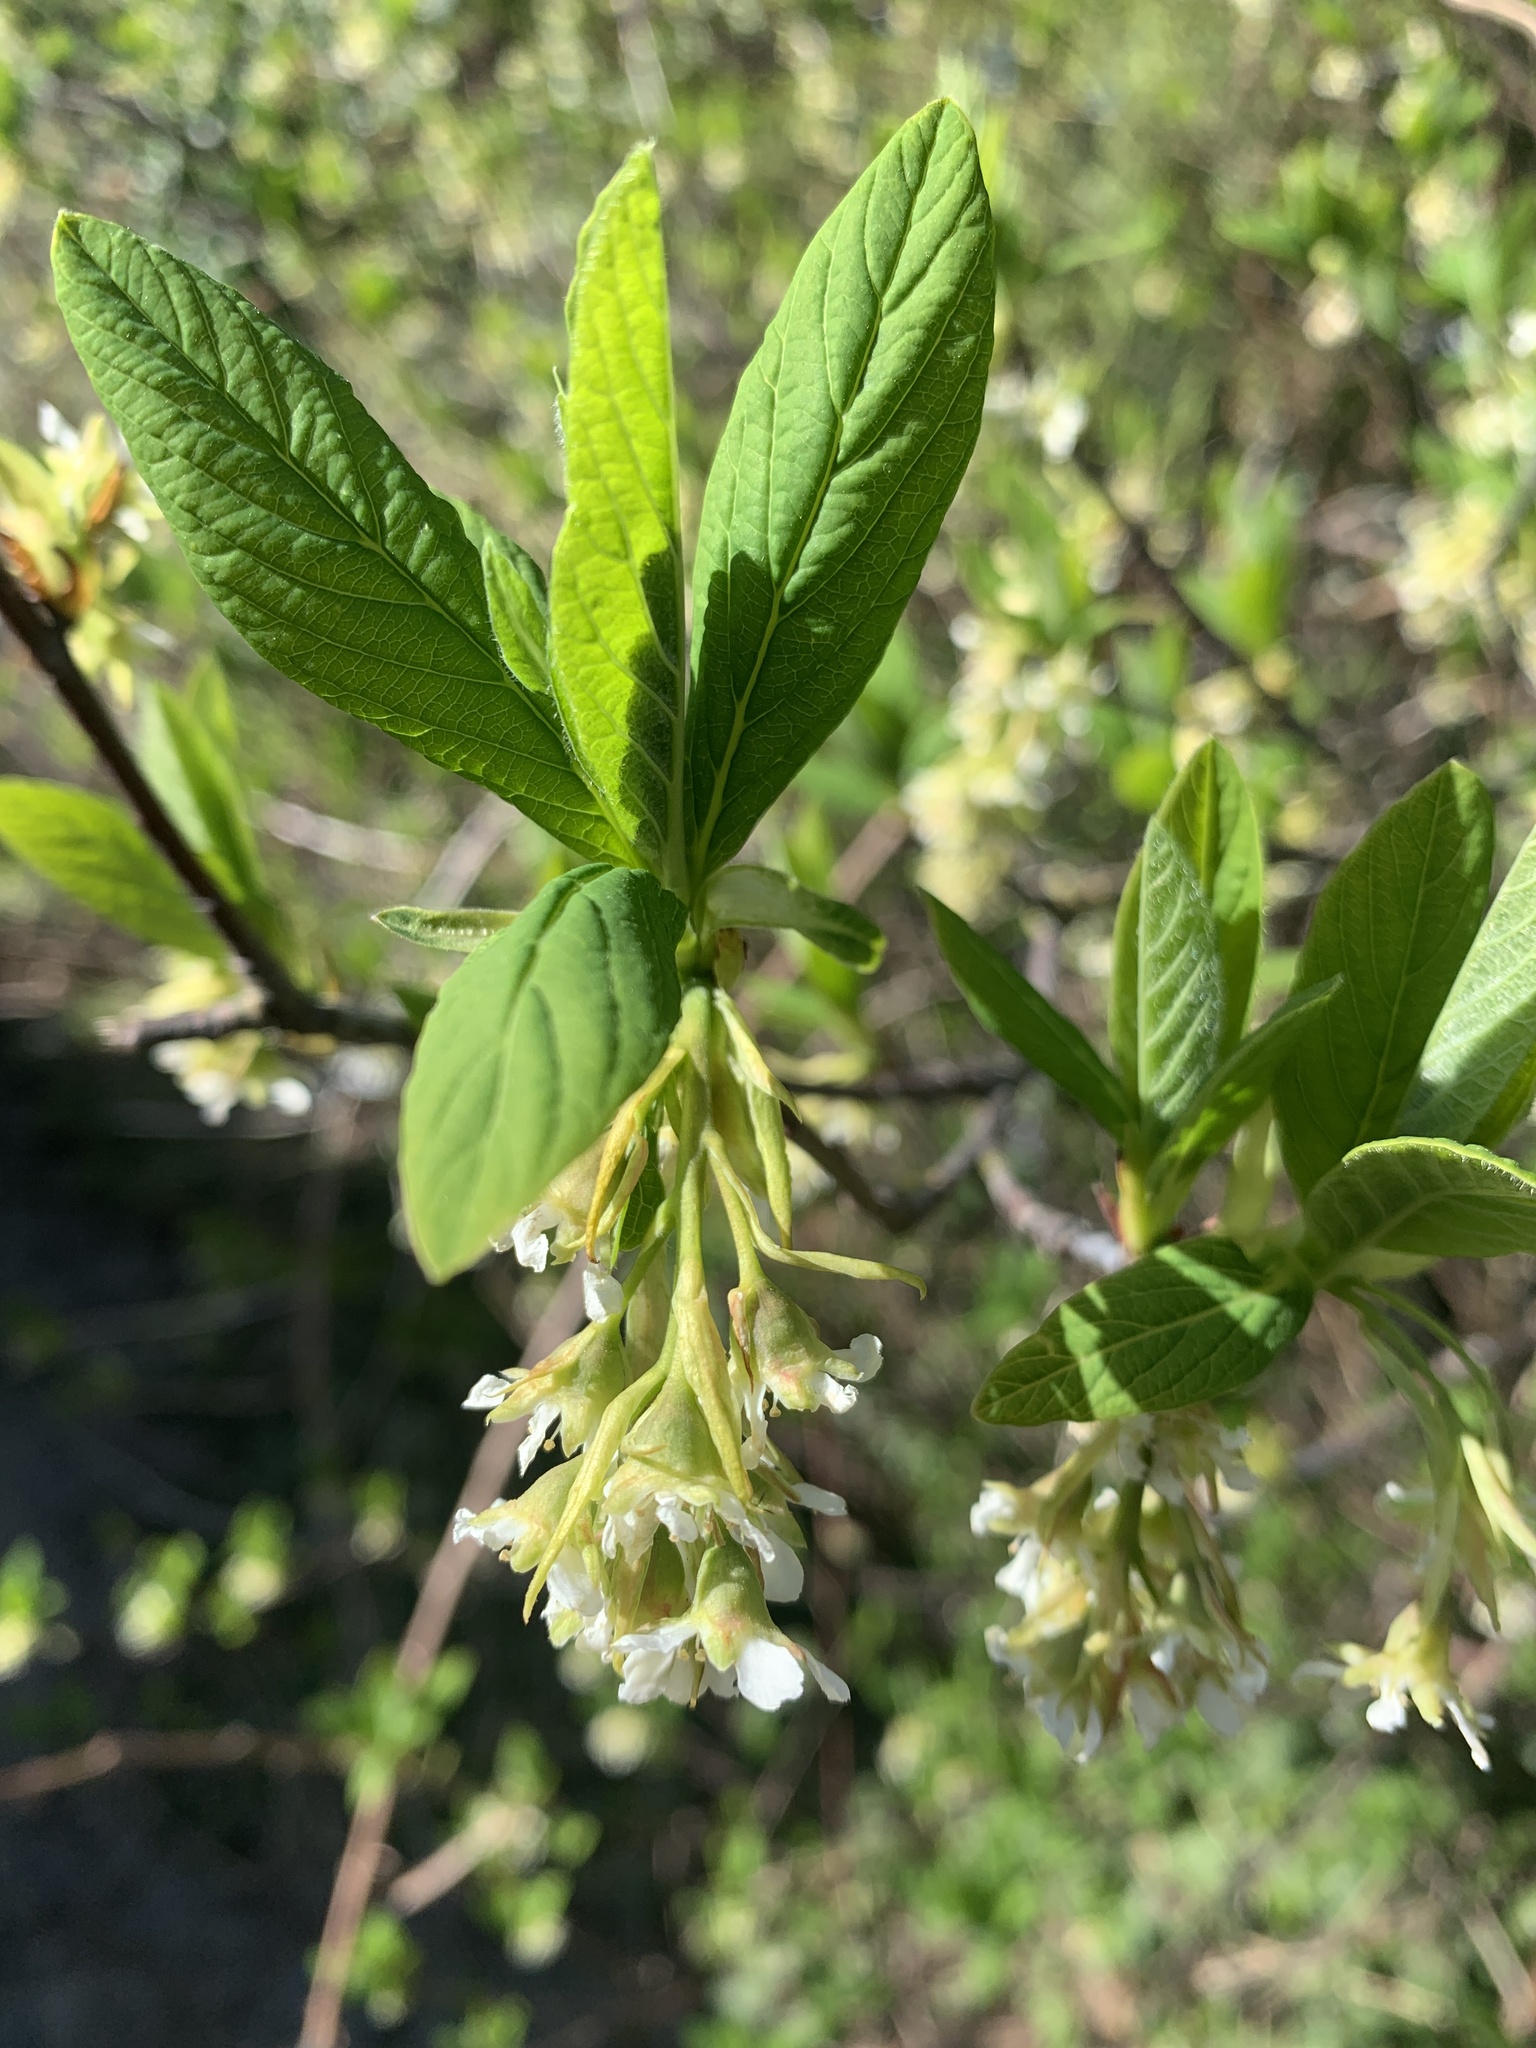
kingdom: Plantae
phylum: Tracheophyta
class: Magnoliopsida
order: Rosales
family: Rosaceae
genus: Oemleria
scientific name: Oemleria cerasiformis
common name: Osoberry
